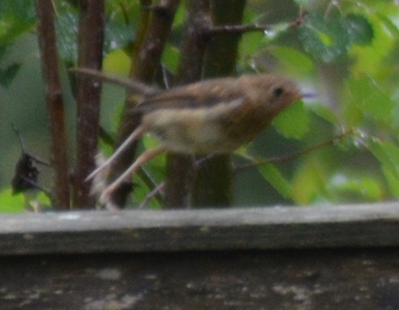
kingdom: Animalia
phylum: Chordata
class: Aves
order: Passeriformes
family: Muscicapidae
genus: Erithacus
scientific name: Erithacus rubecula
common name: European robin
